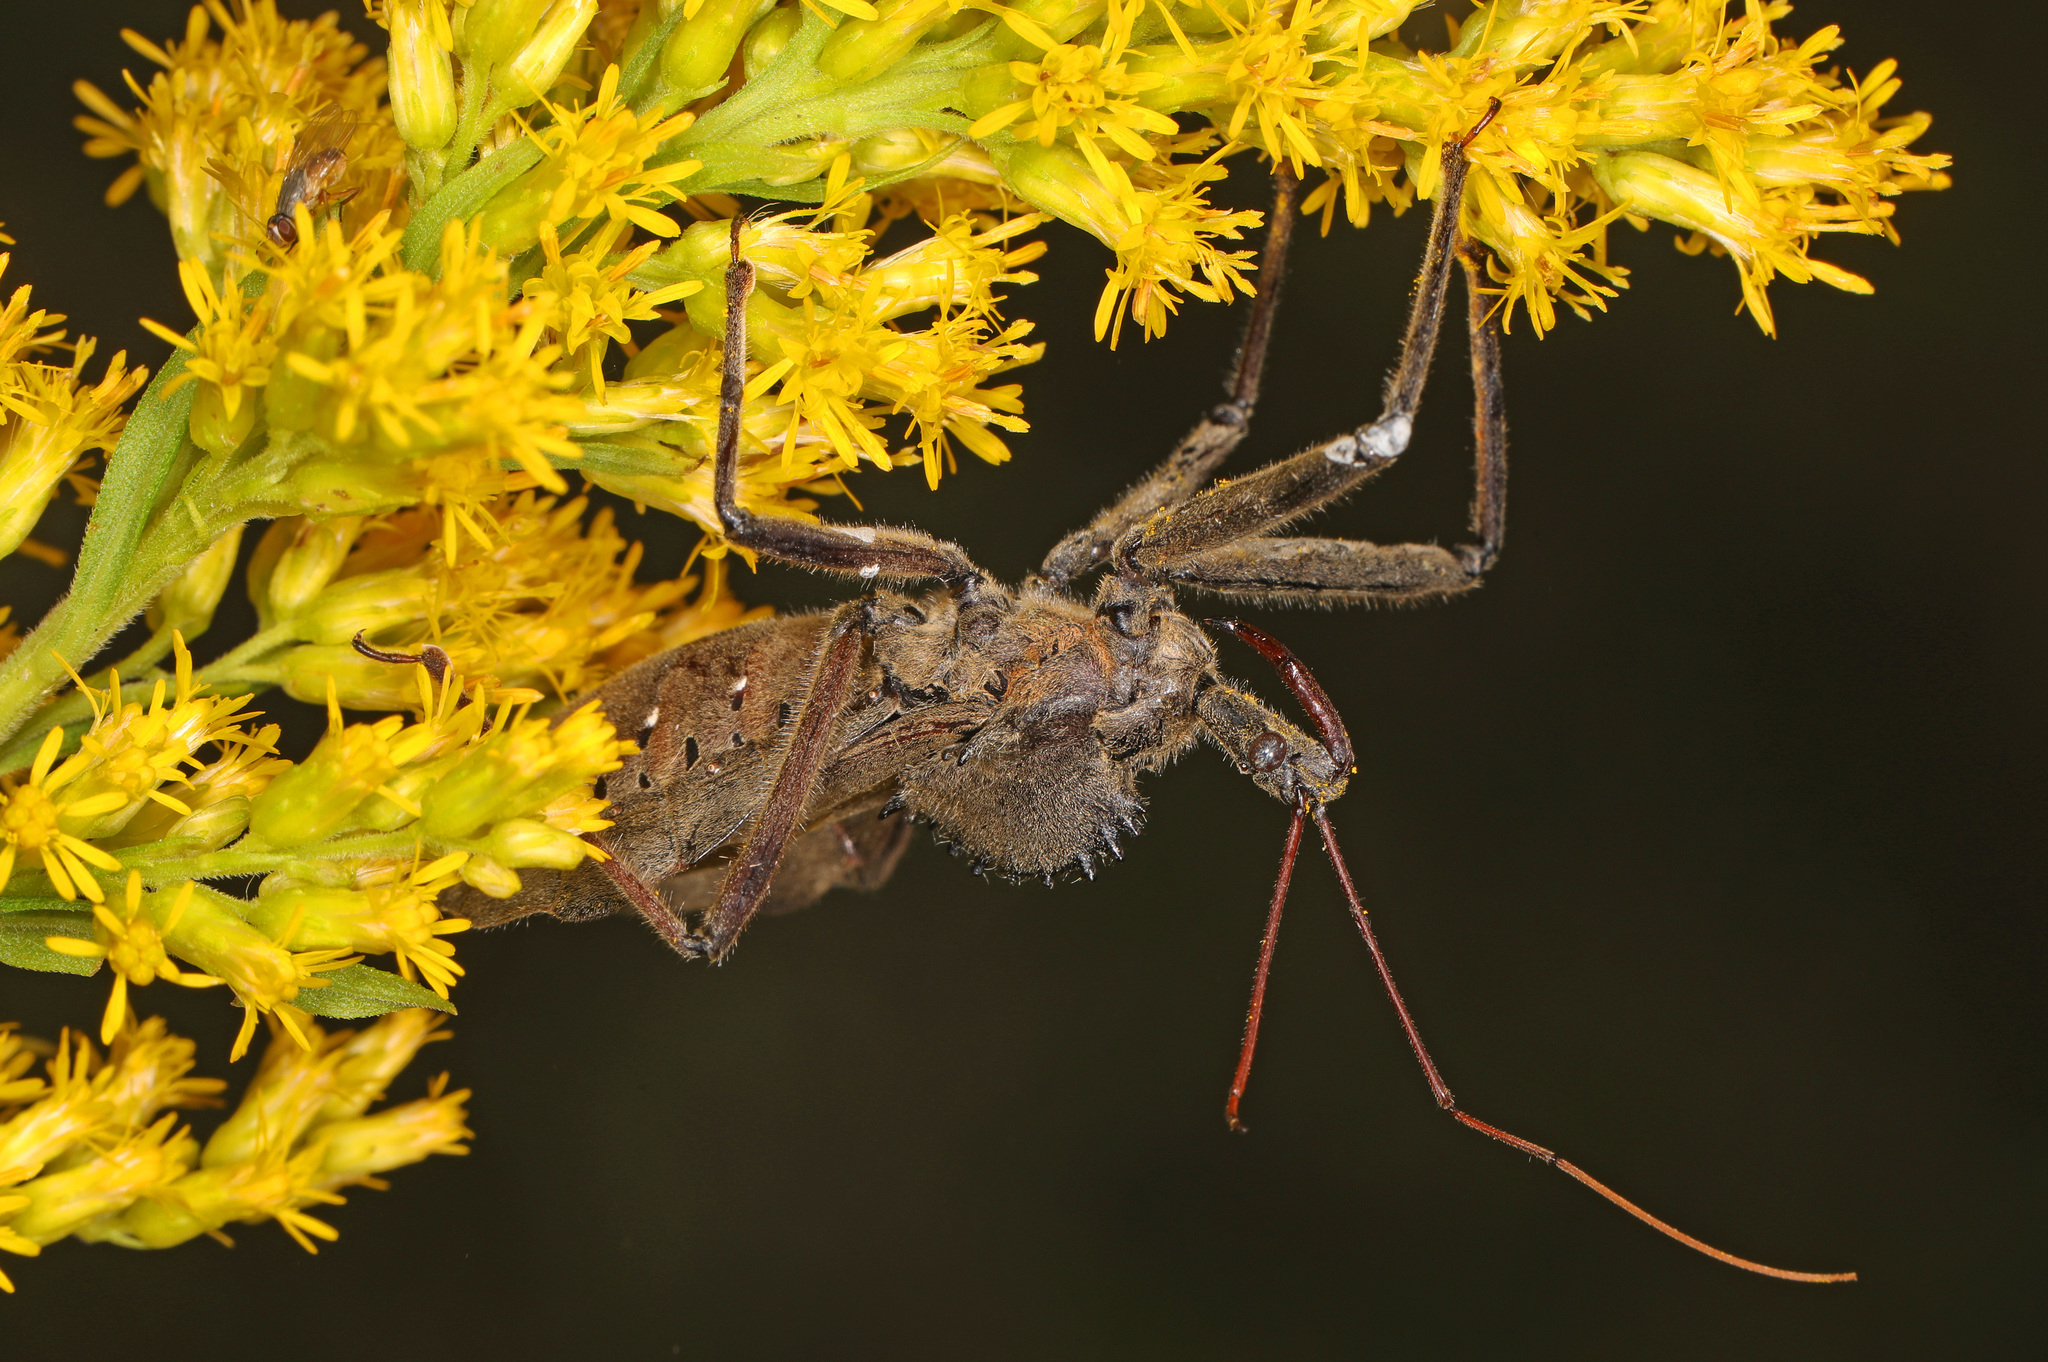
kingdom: Animalia
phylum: Arthropoda
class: Insecta
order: Hemiptera
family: Reduviidae
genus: Arilus
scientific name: Arilus cristatus
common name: North american wheel bug
